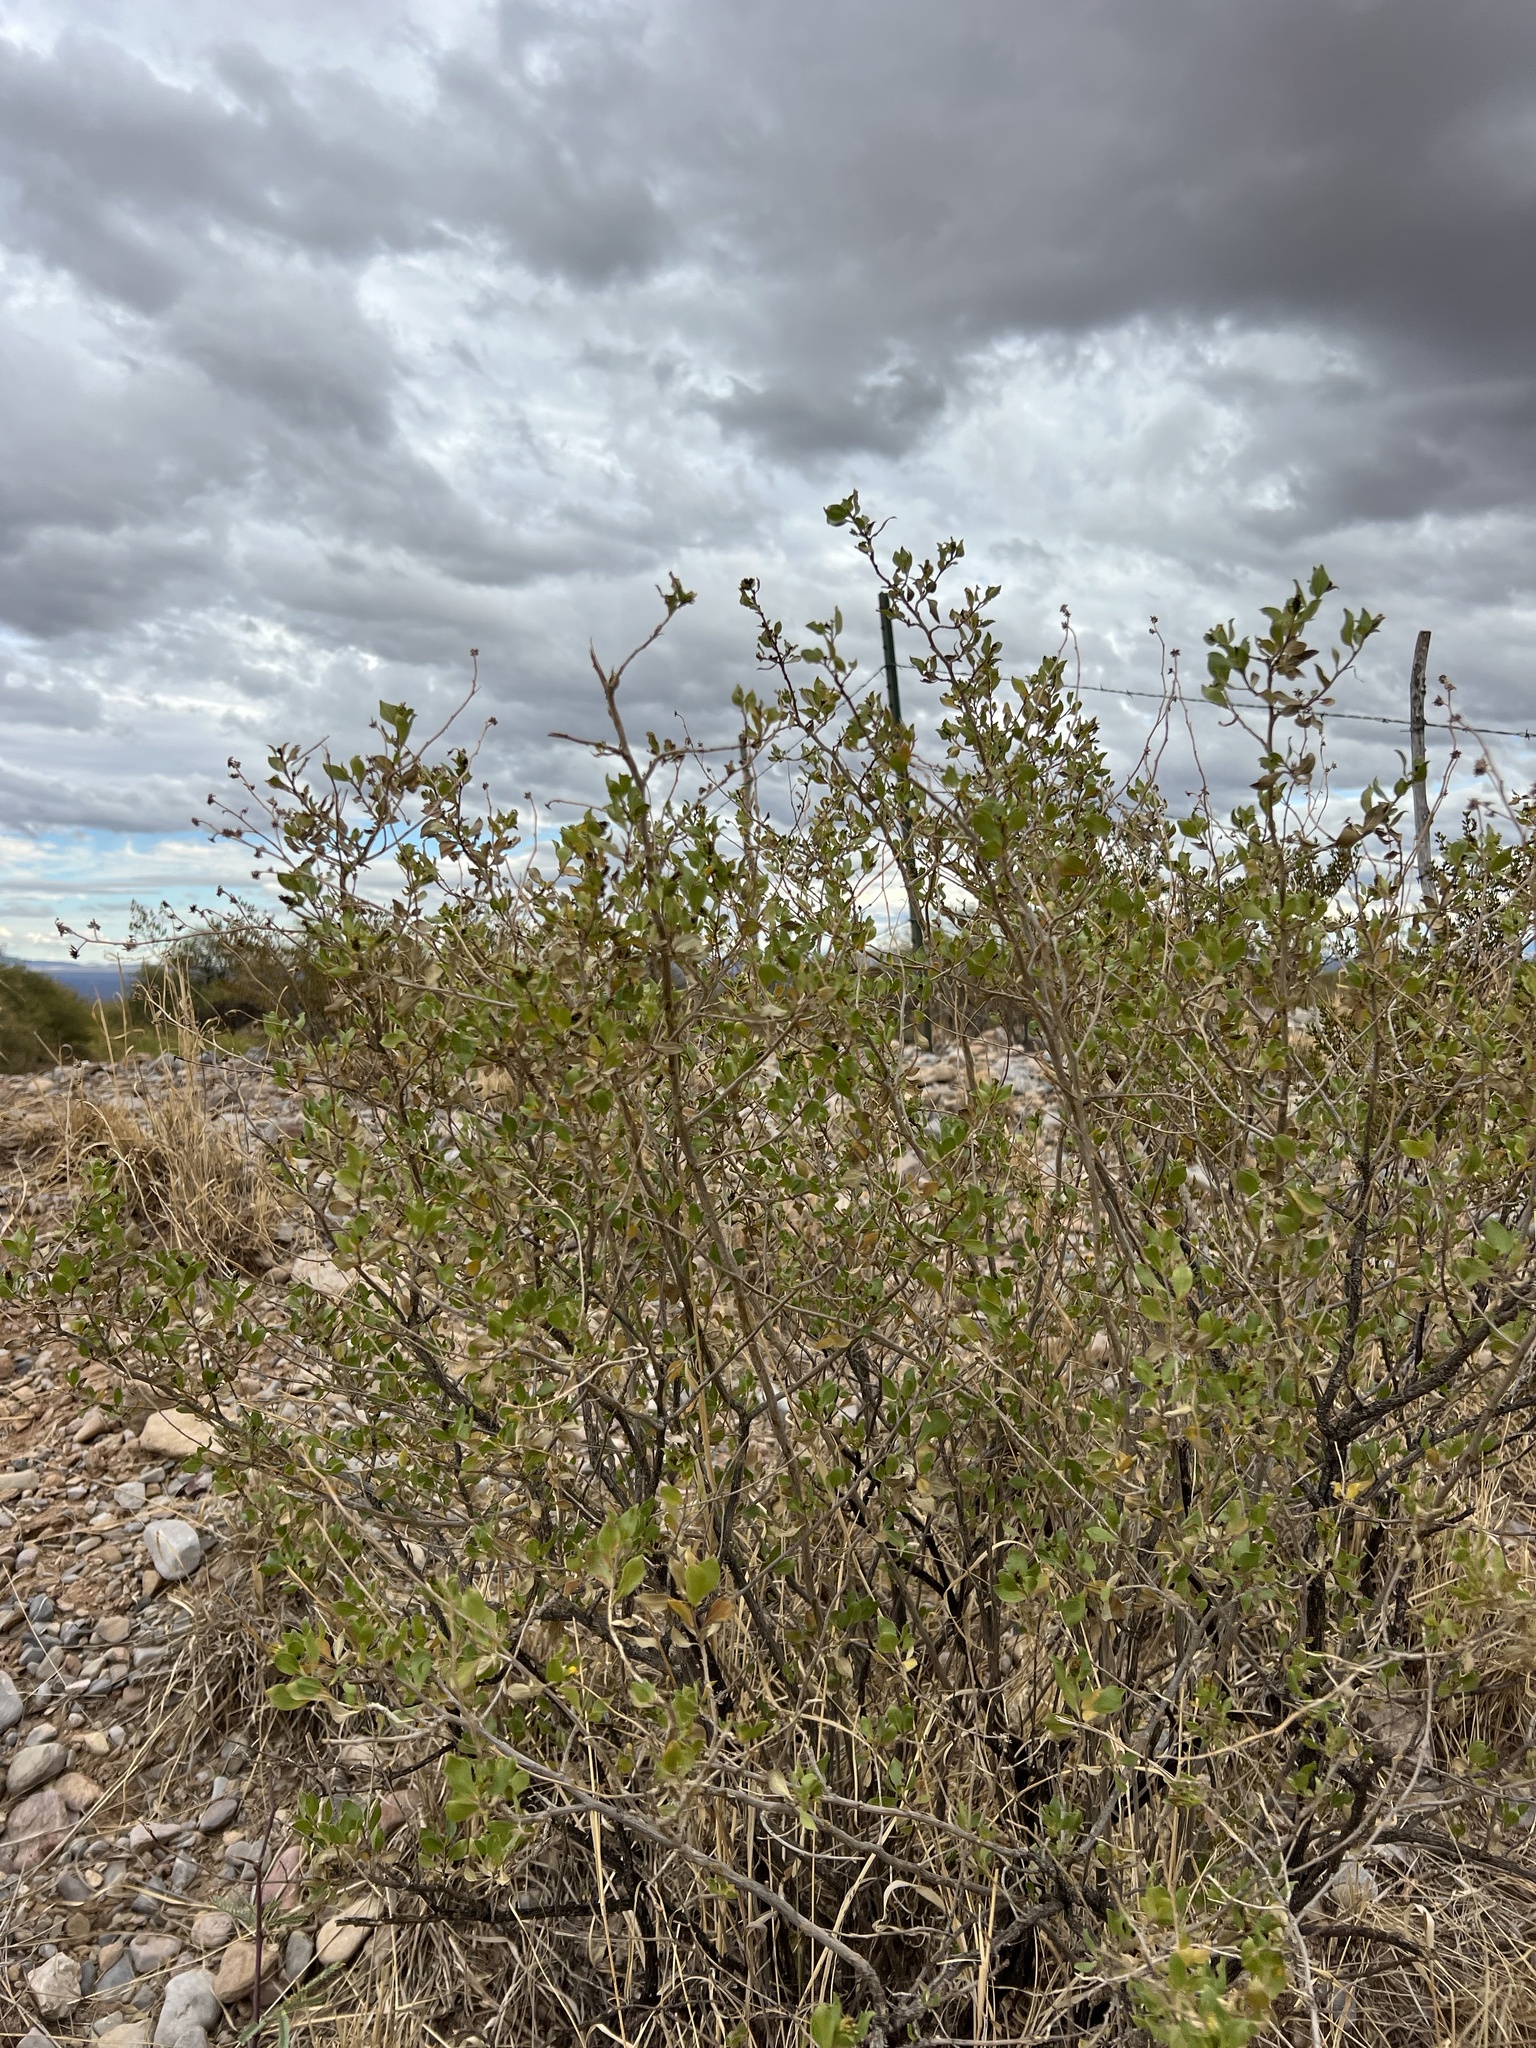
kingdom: Plantae
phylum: Tracheophyta
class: Magnoliopsida
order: Asterales
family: Asteraceae
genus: Flourensia
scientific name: Flourensia cernua
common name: Varnishbush
